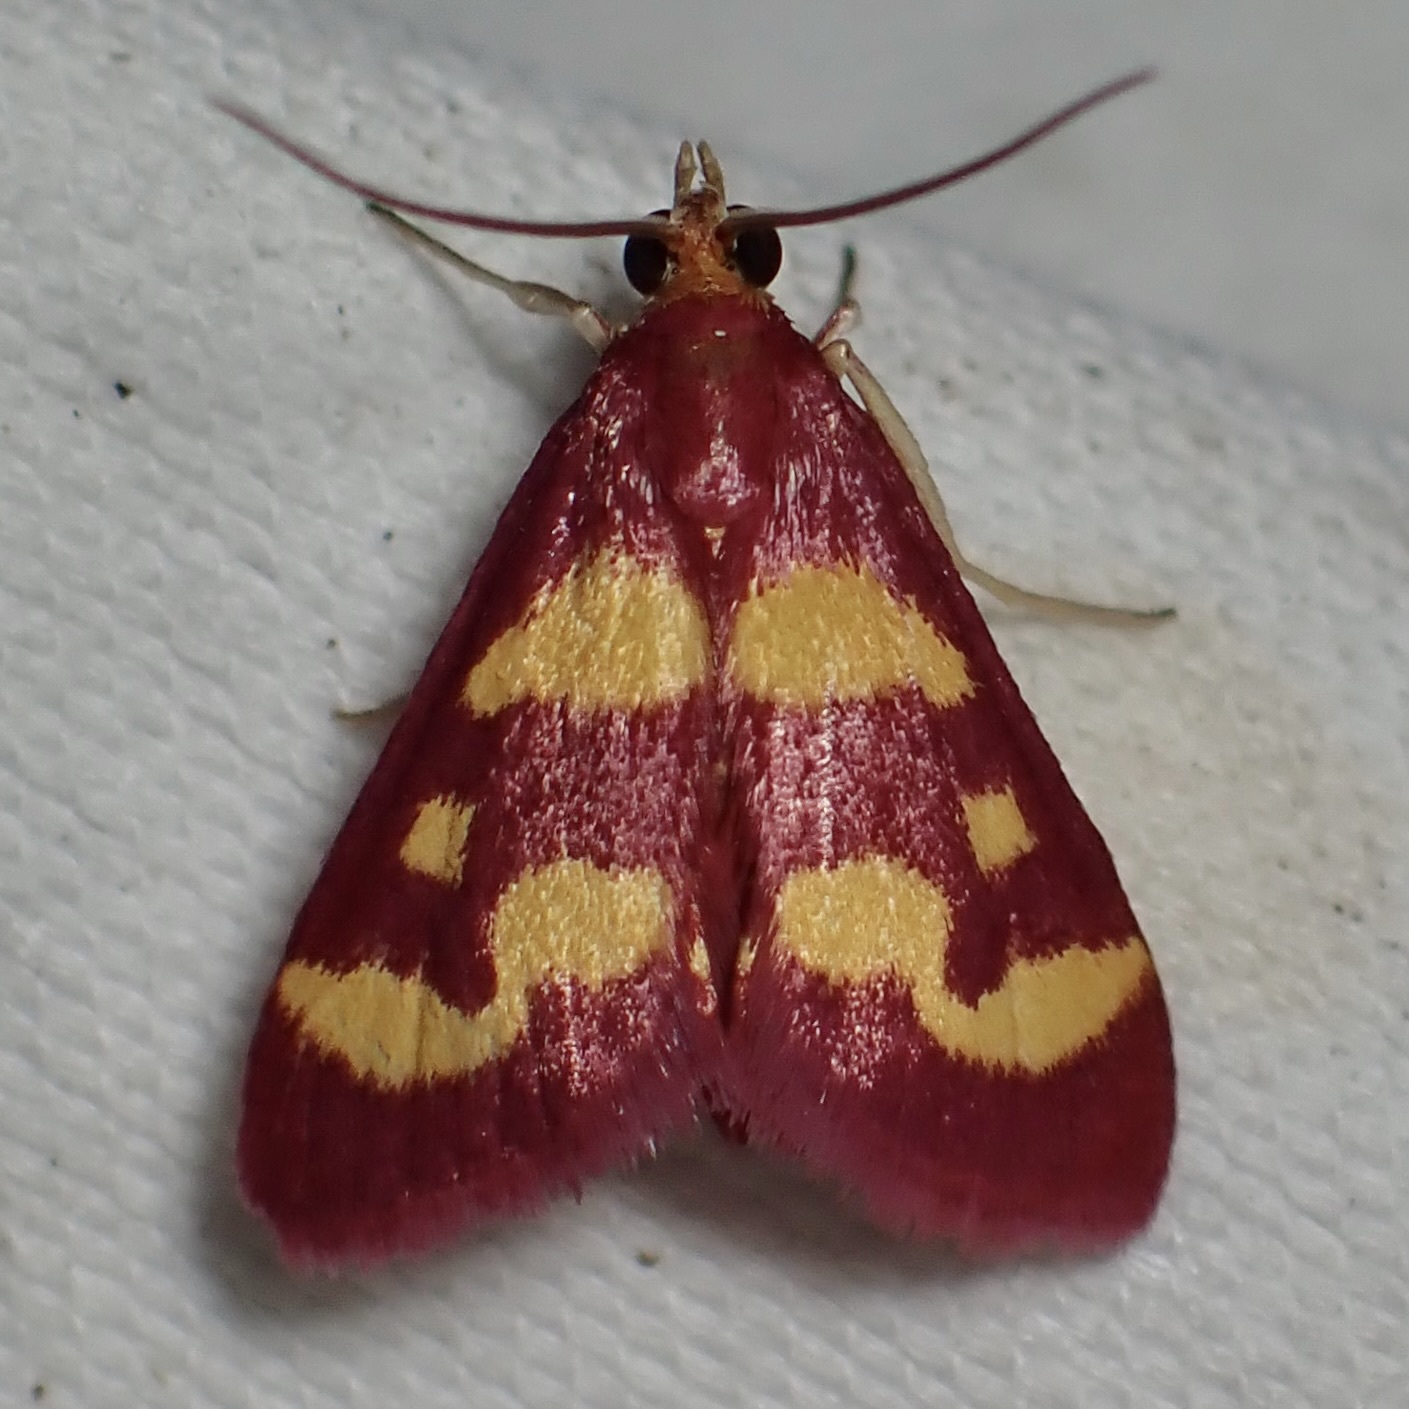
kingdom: Animalia
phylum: Arthropoda
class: Insecta
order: Lepidoptera
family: Crambidae
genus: Pyrausta
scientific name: Pyrausta tyralis
